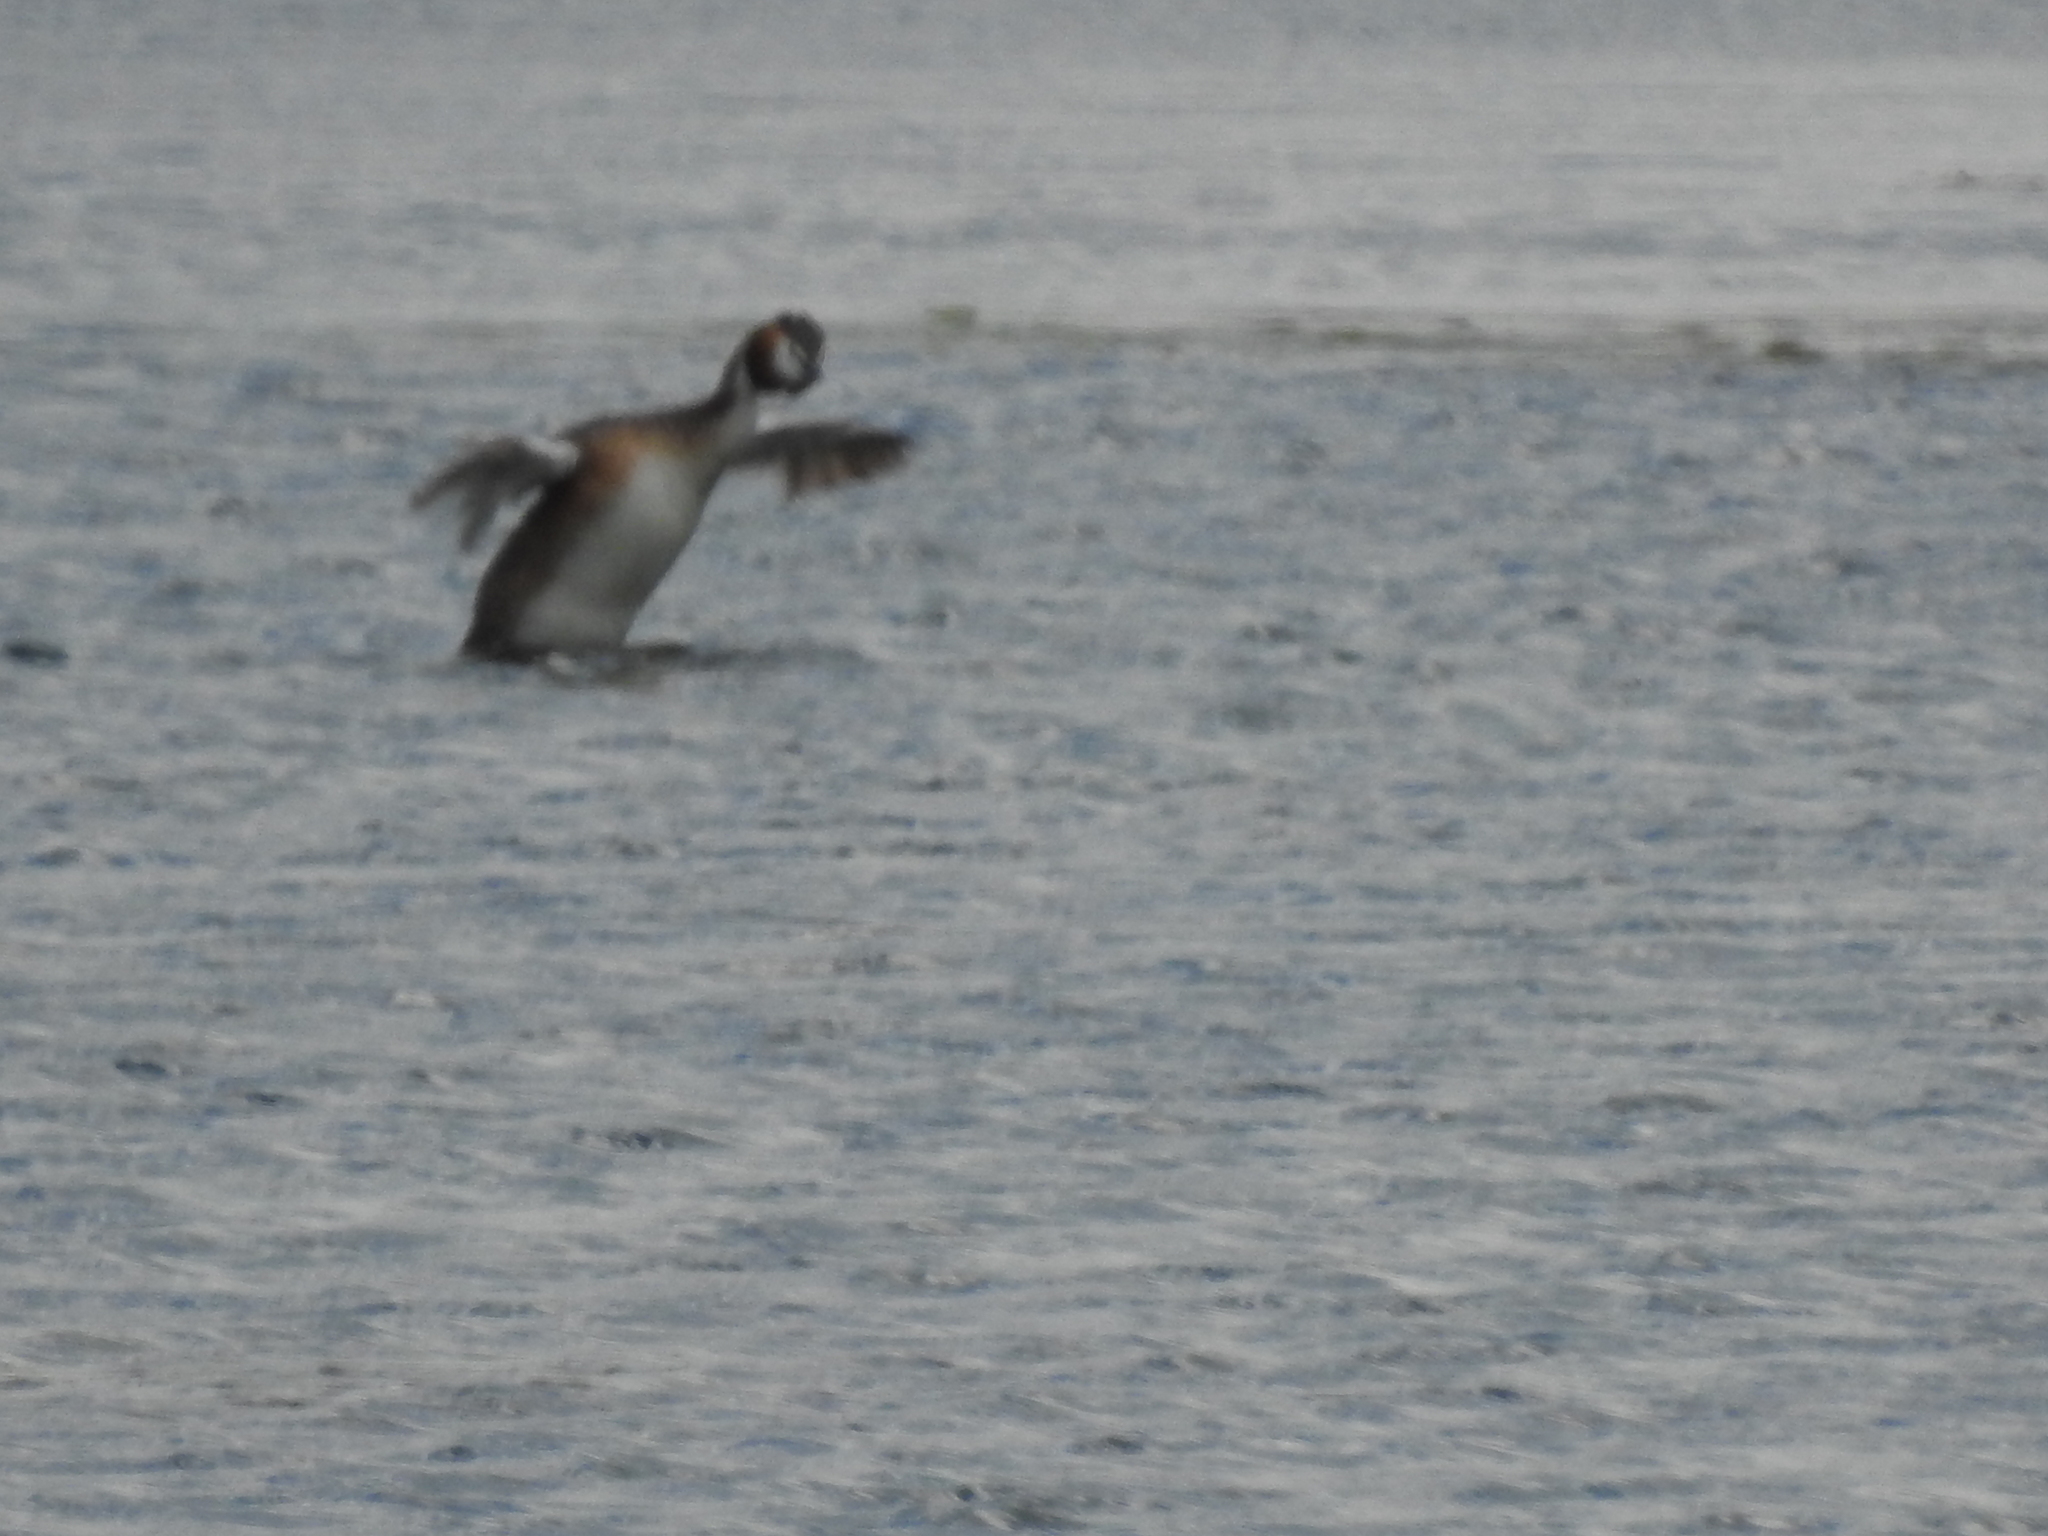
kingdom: Animalia
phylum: Chordata
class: Aves
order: Podicipediformes
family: Podicipedidae
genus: Podiceps
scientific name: Podiceps cristatus
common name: Great crested grebe
